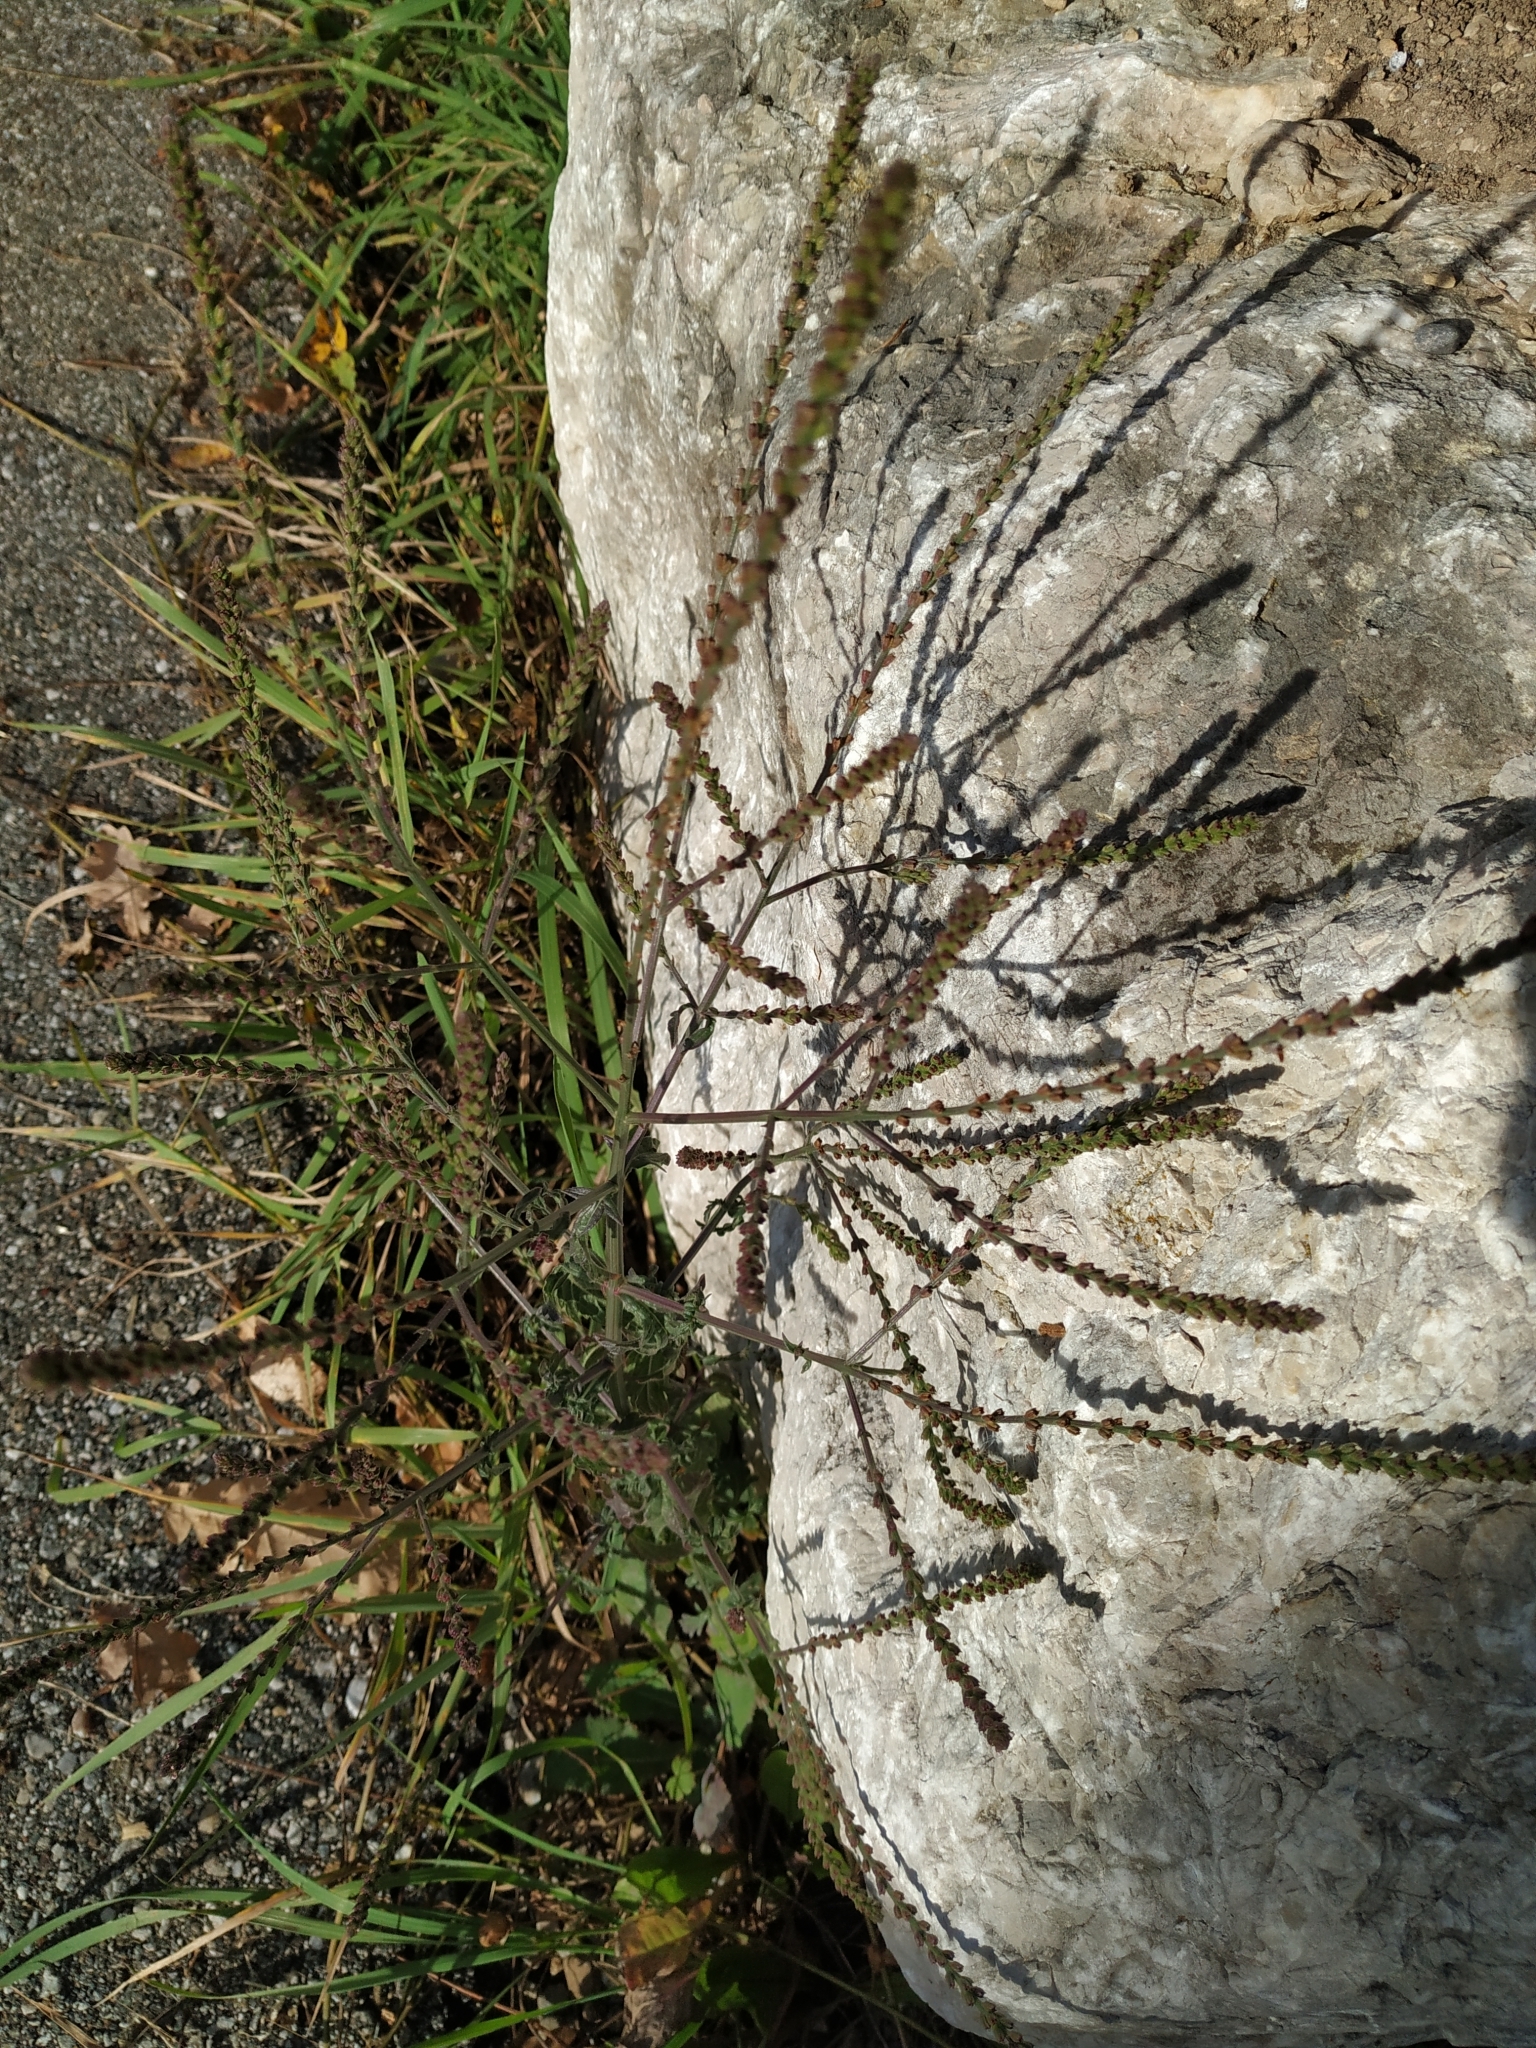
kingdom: Plantae
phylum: Tracheophyta
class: Magnoliopsida
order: Lamiales
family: Verbenaceae
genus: Verbena
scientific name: Verbena officinalis
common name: Vervain
